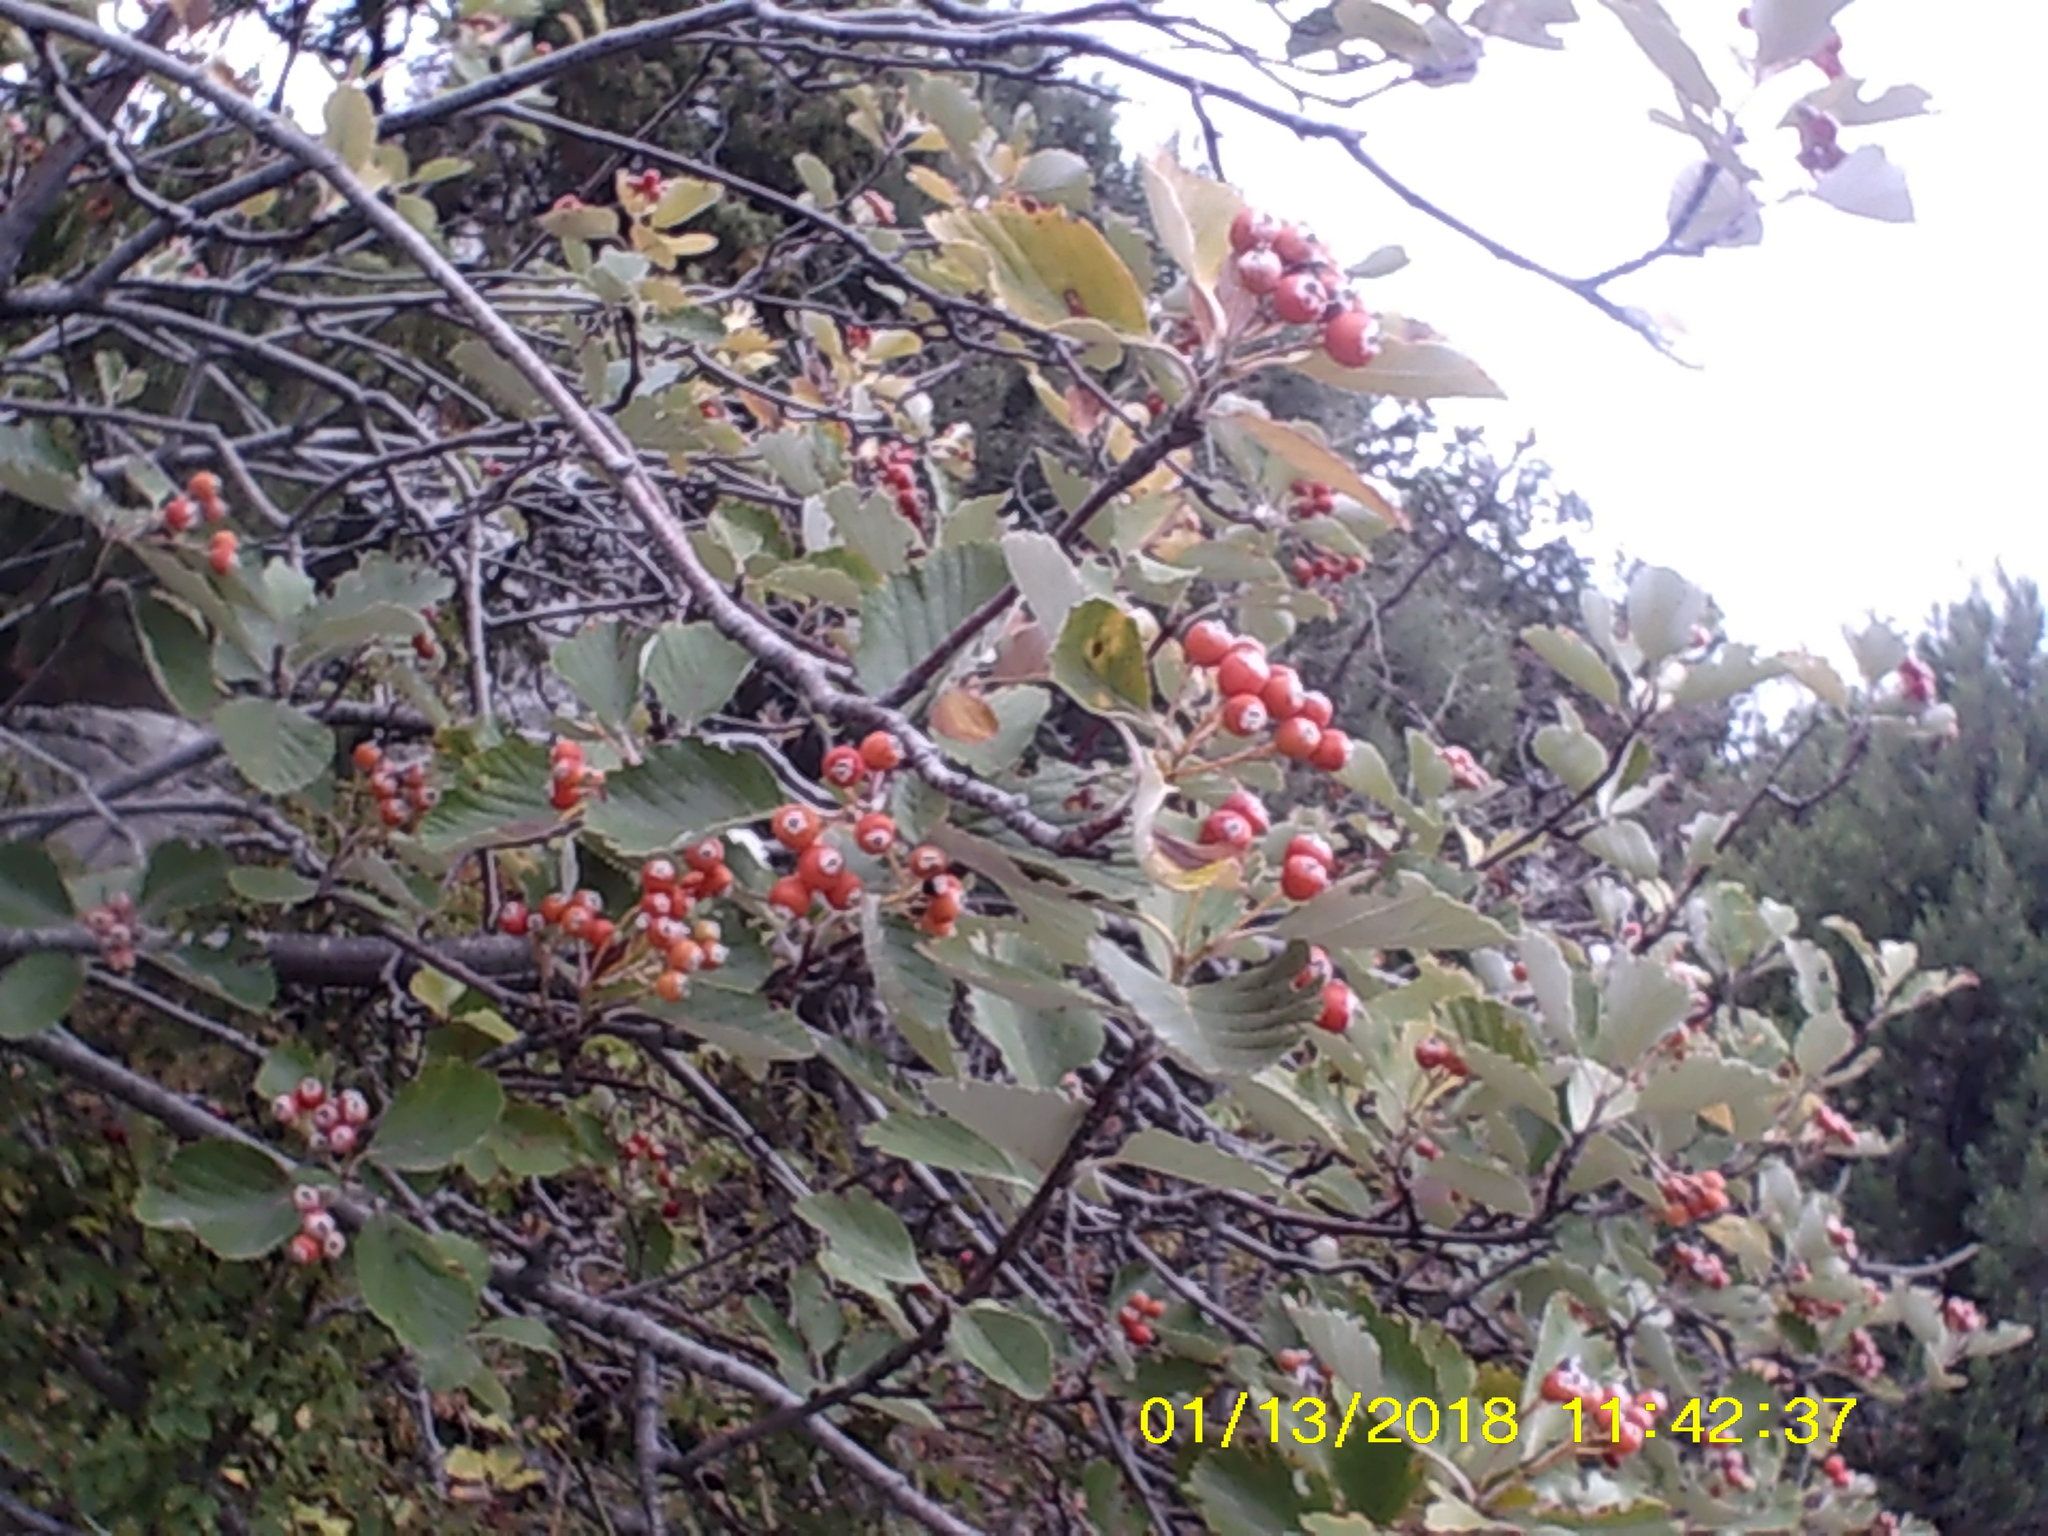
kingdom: Plantae
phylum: Tracheophyta
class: Magnoliopsida
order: Rosales
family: Rosaceae
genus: Aria
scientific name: Aria graeca
